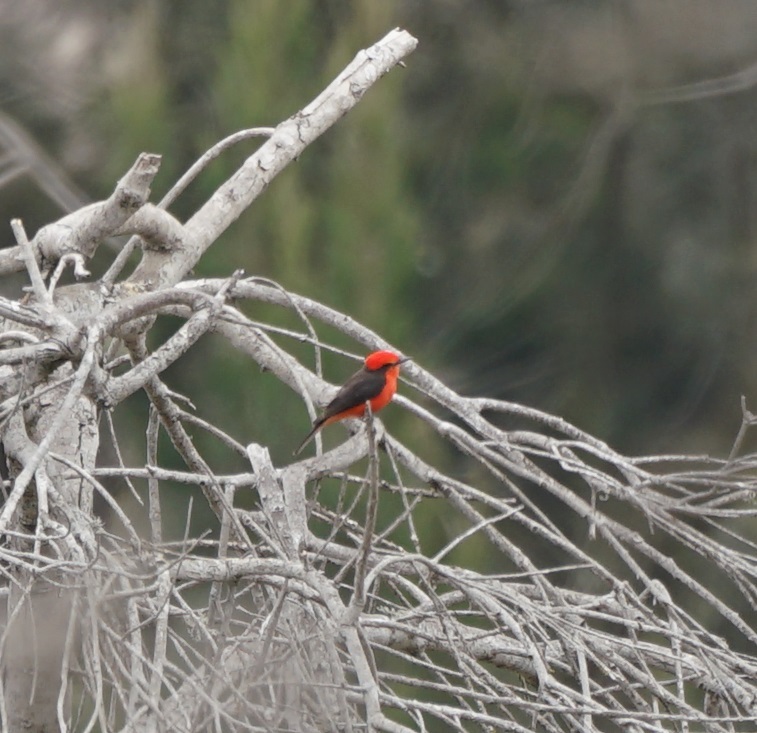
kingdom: Animalia
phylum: Chordata
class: Aves
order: Passeriformes
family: Tyrannidae
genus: Pyrocephalus
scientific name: Pyrocephalus rubinus
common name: Vermilion flycatcher
